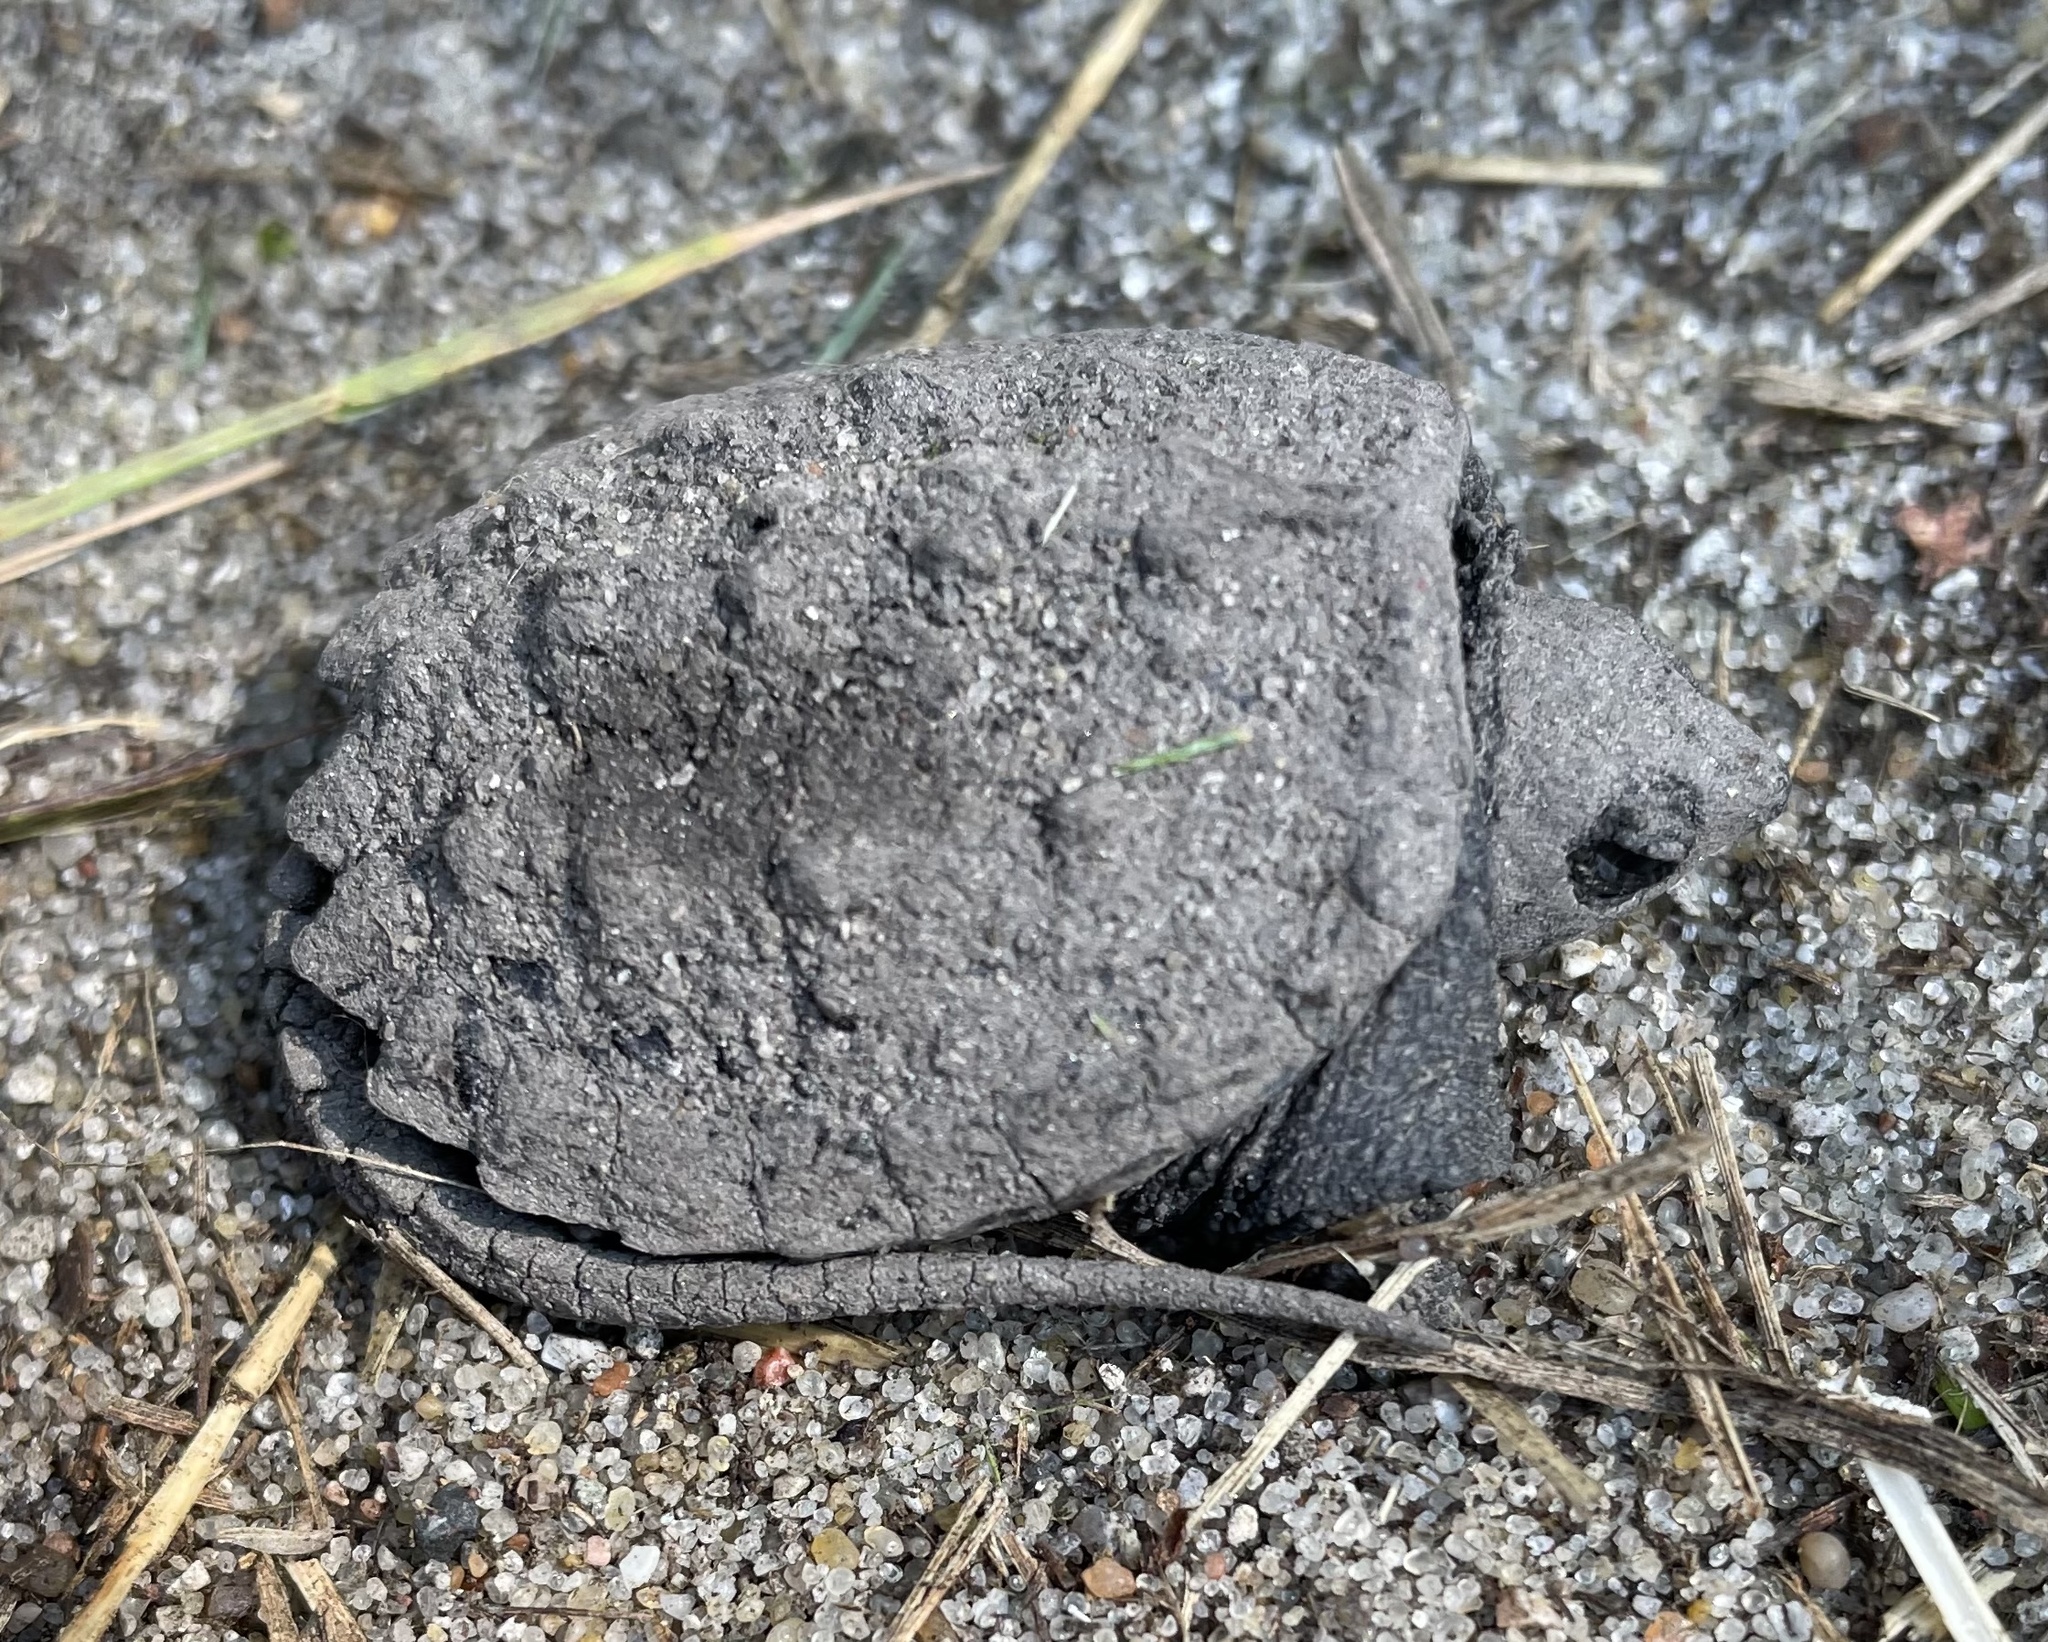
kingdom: Animalia
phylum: Chordata
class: Testudines
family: Chelydridae
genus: Chelydra
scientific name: Chelydra serpentina
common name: Common snapping turtle
